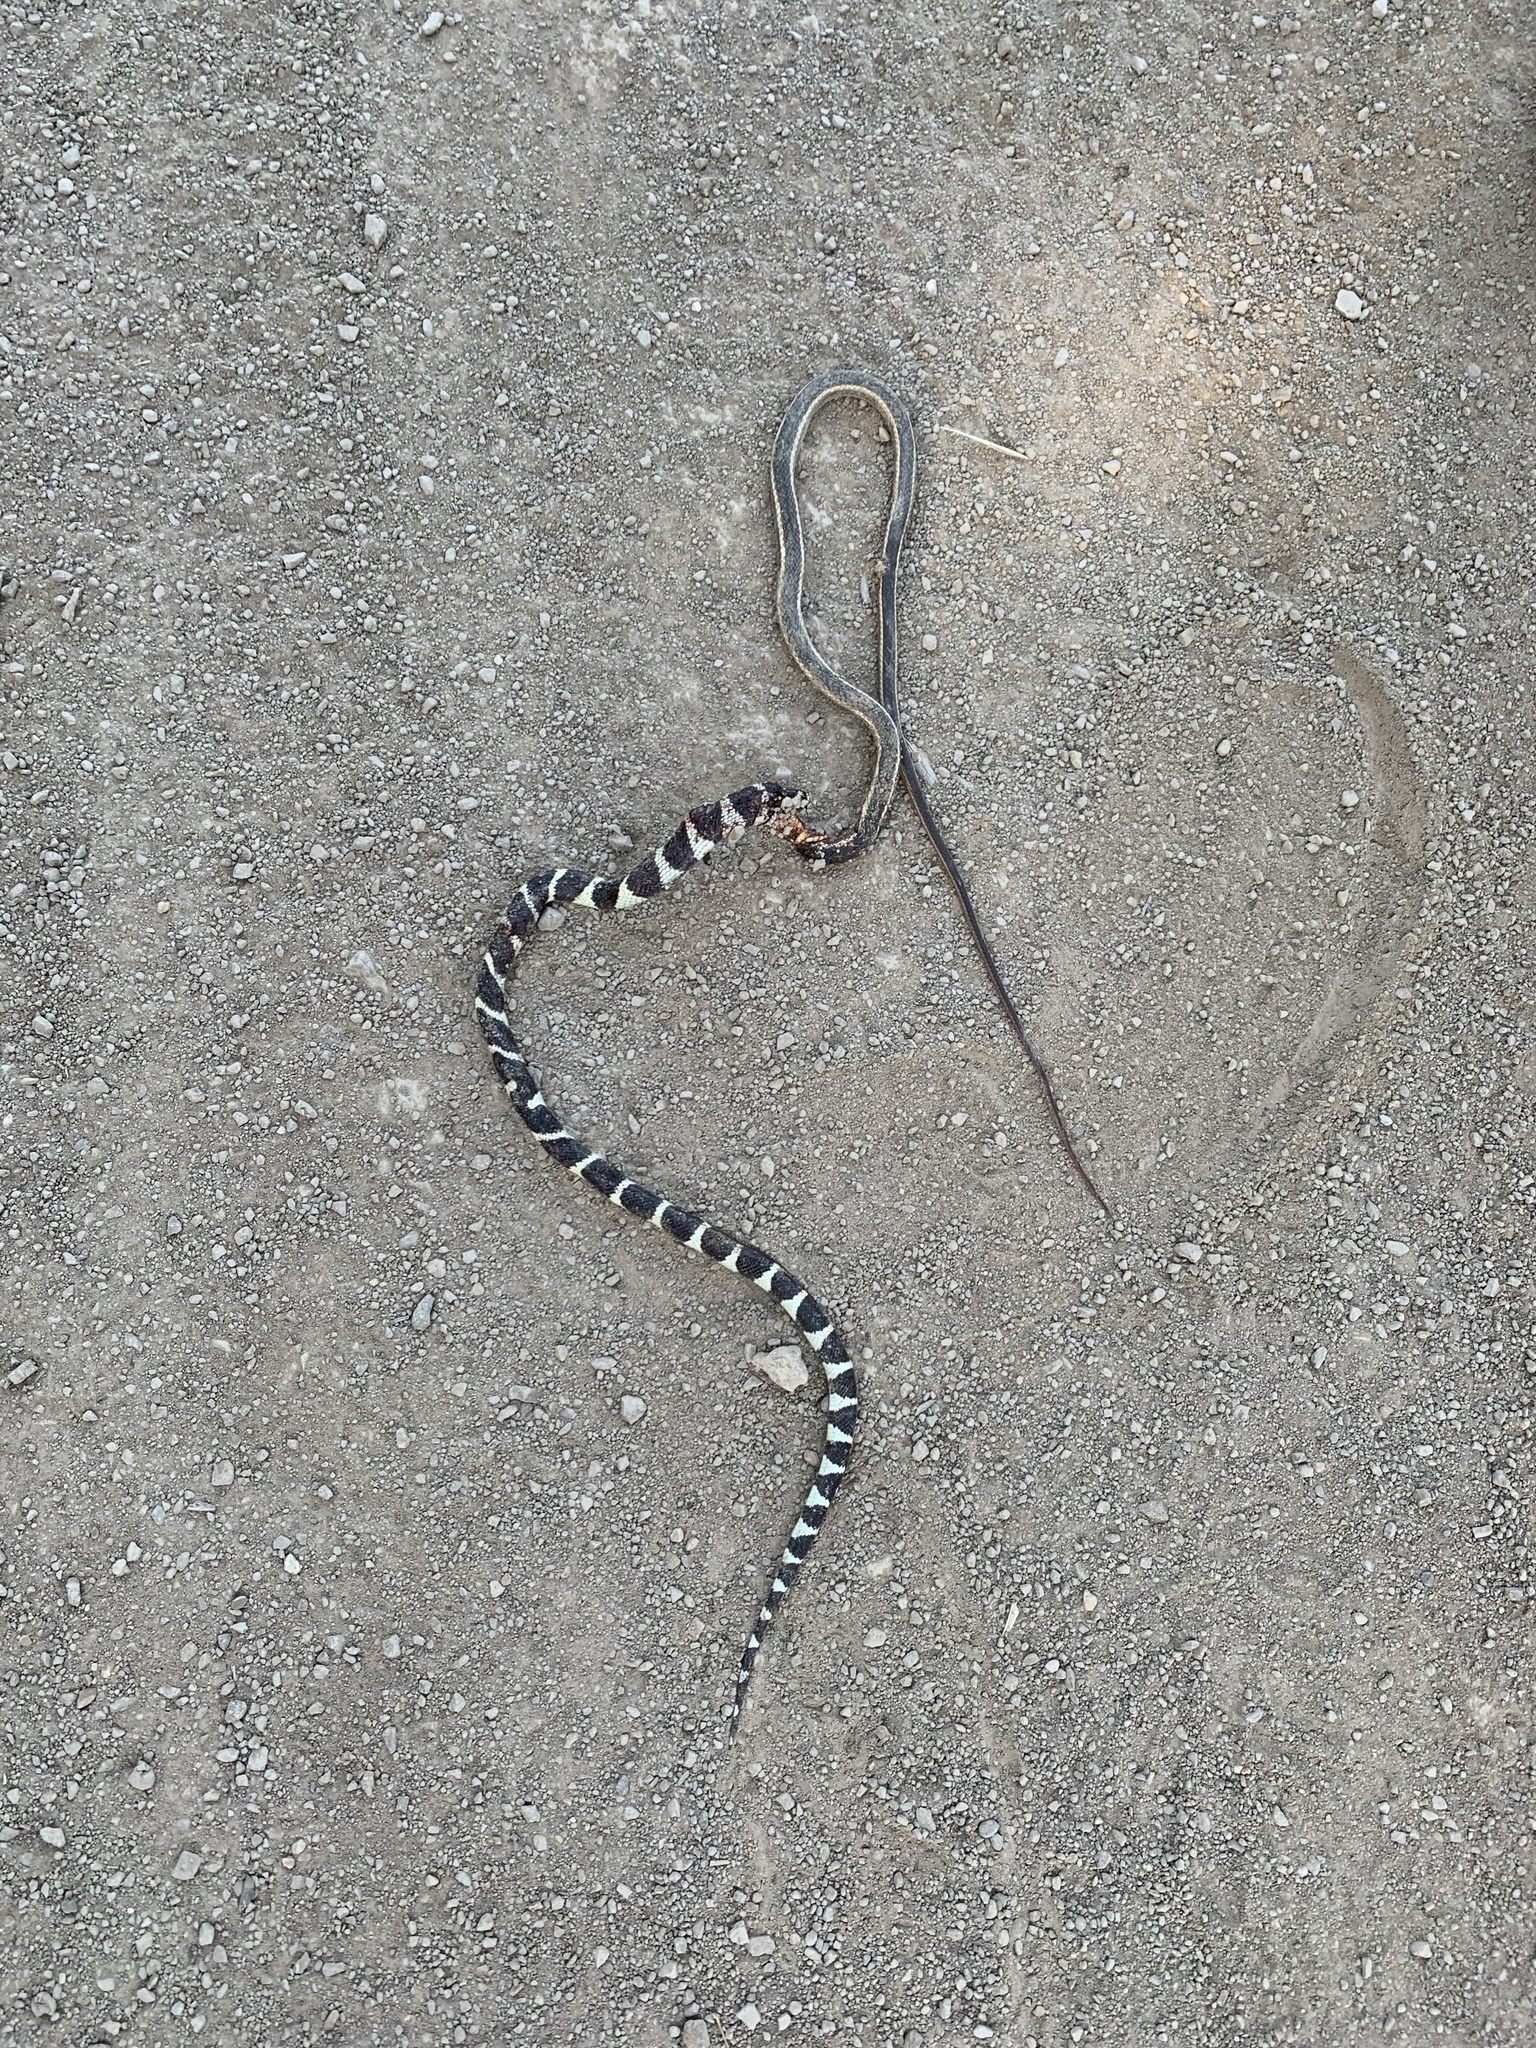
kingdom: Animalia
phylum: Chordata
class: Squamata
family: Colubridae
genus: Lampropeltis
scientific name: Lampropeltis californiae
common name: California kingsnake
